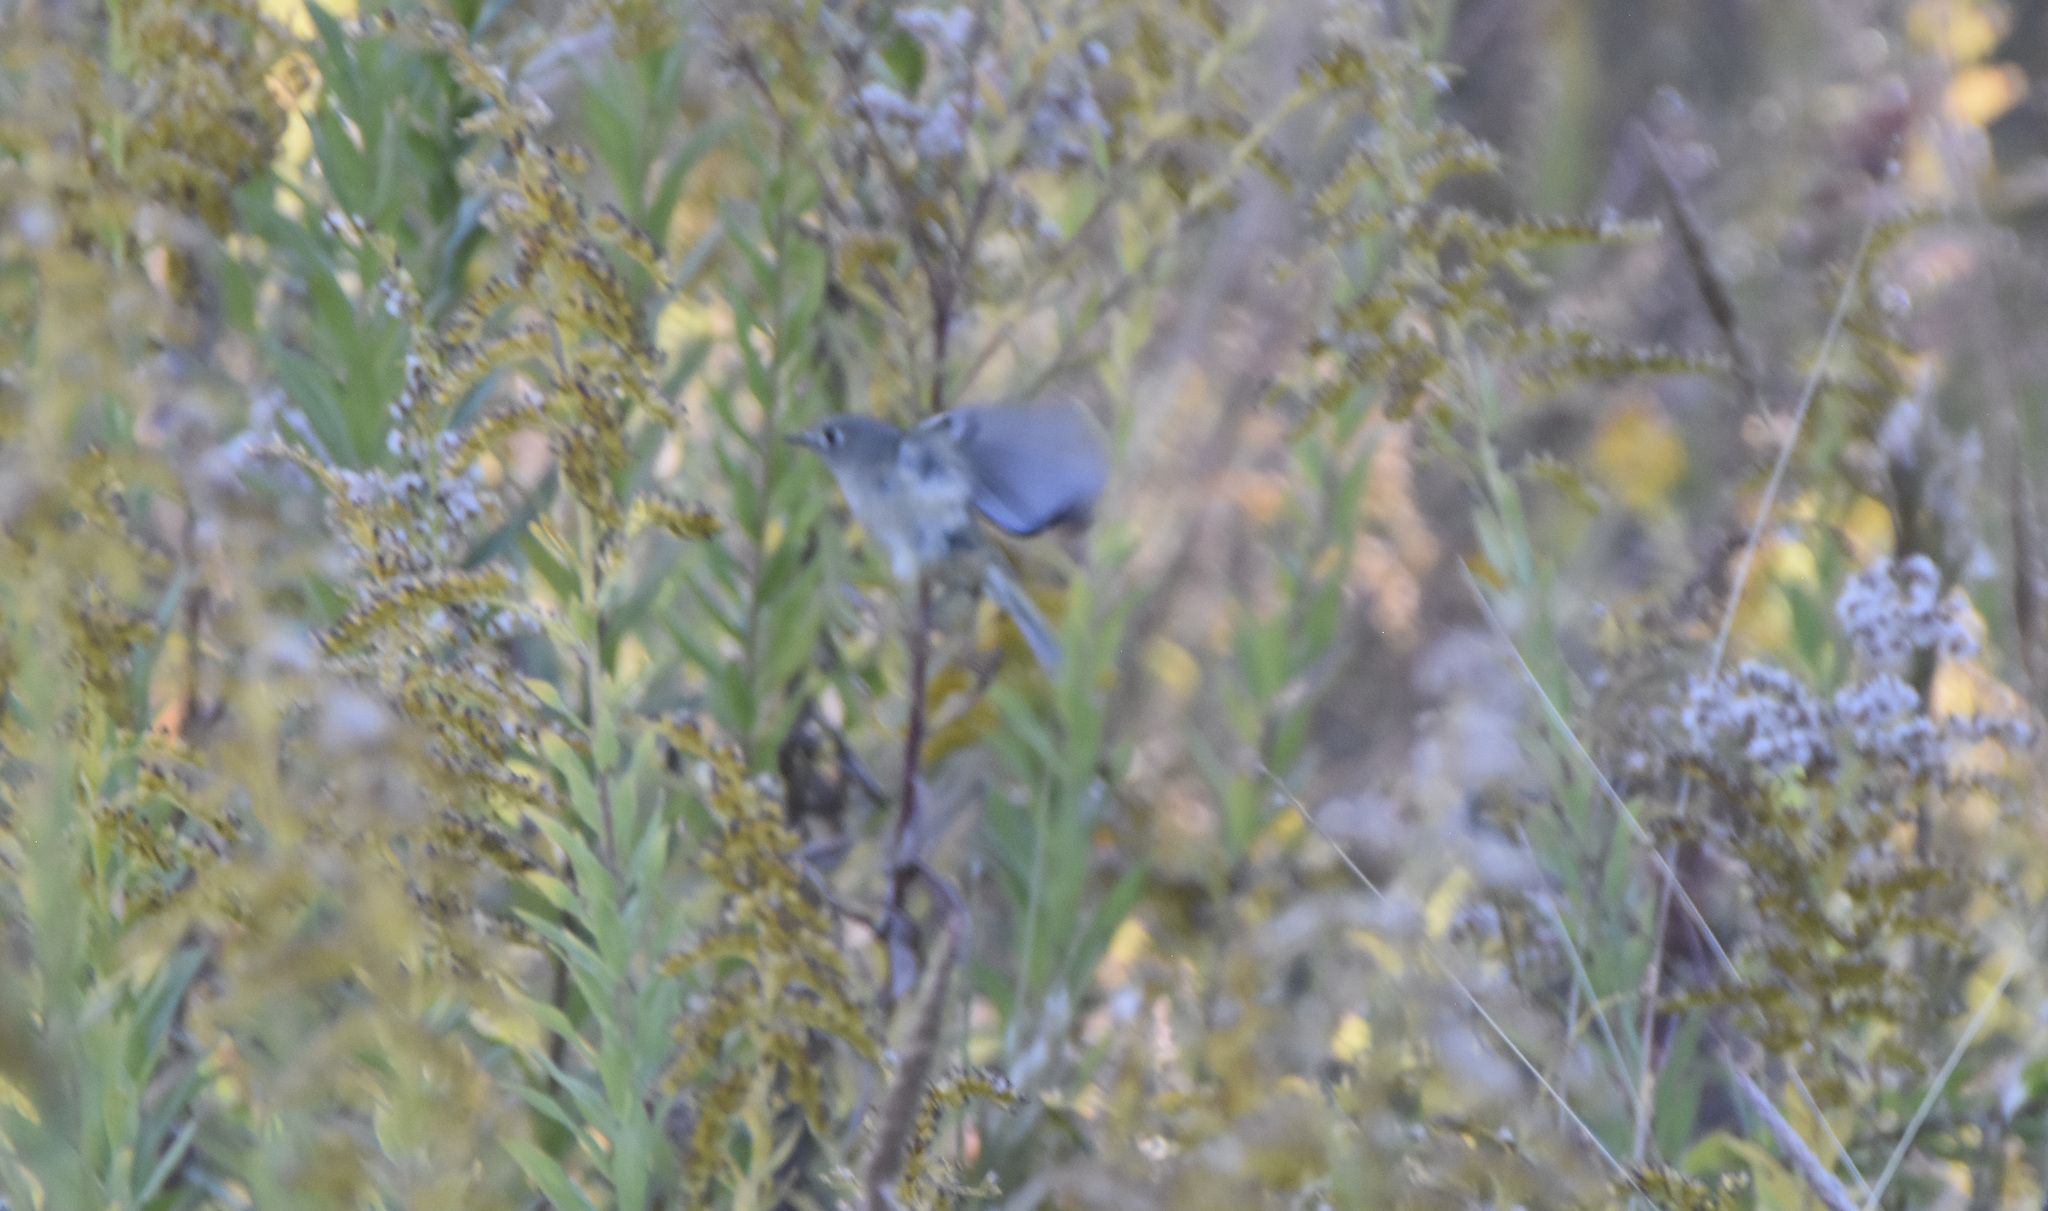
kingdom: Animalia
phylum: Chordata
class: Aves
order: Passeriformes
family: Regulidae
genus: Regulus
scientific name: Regulus calendula
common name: Ruby-crowned kinglet
